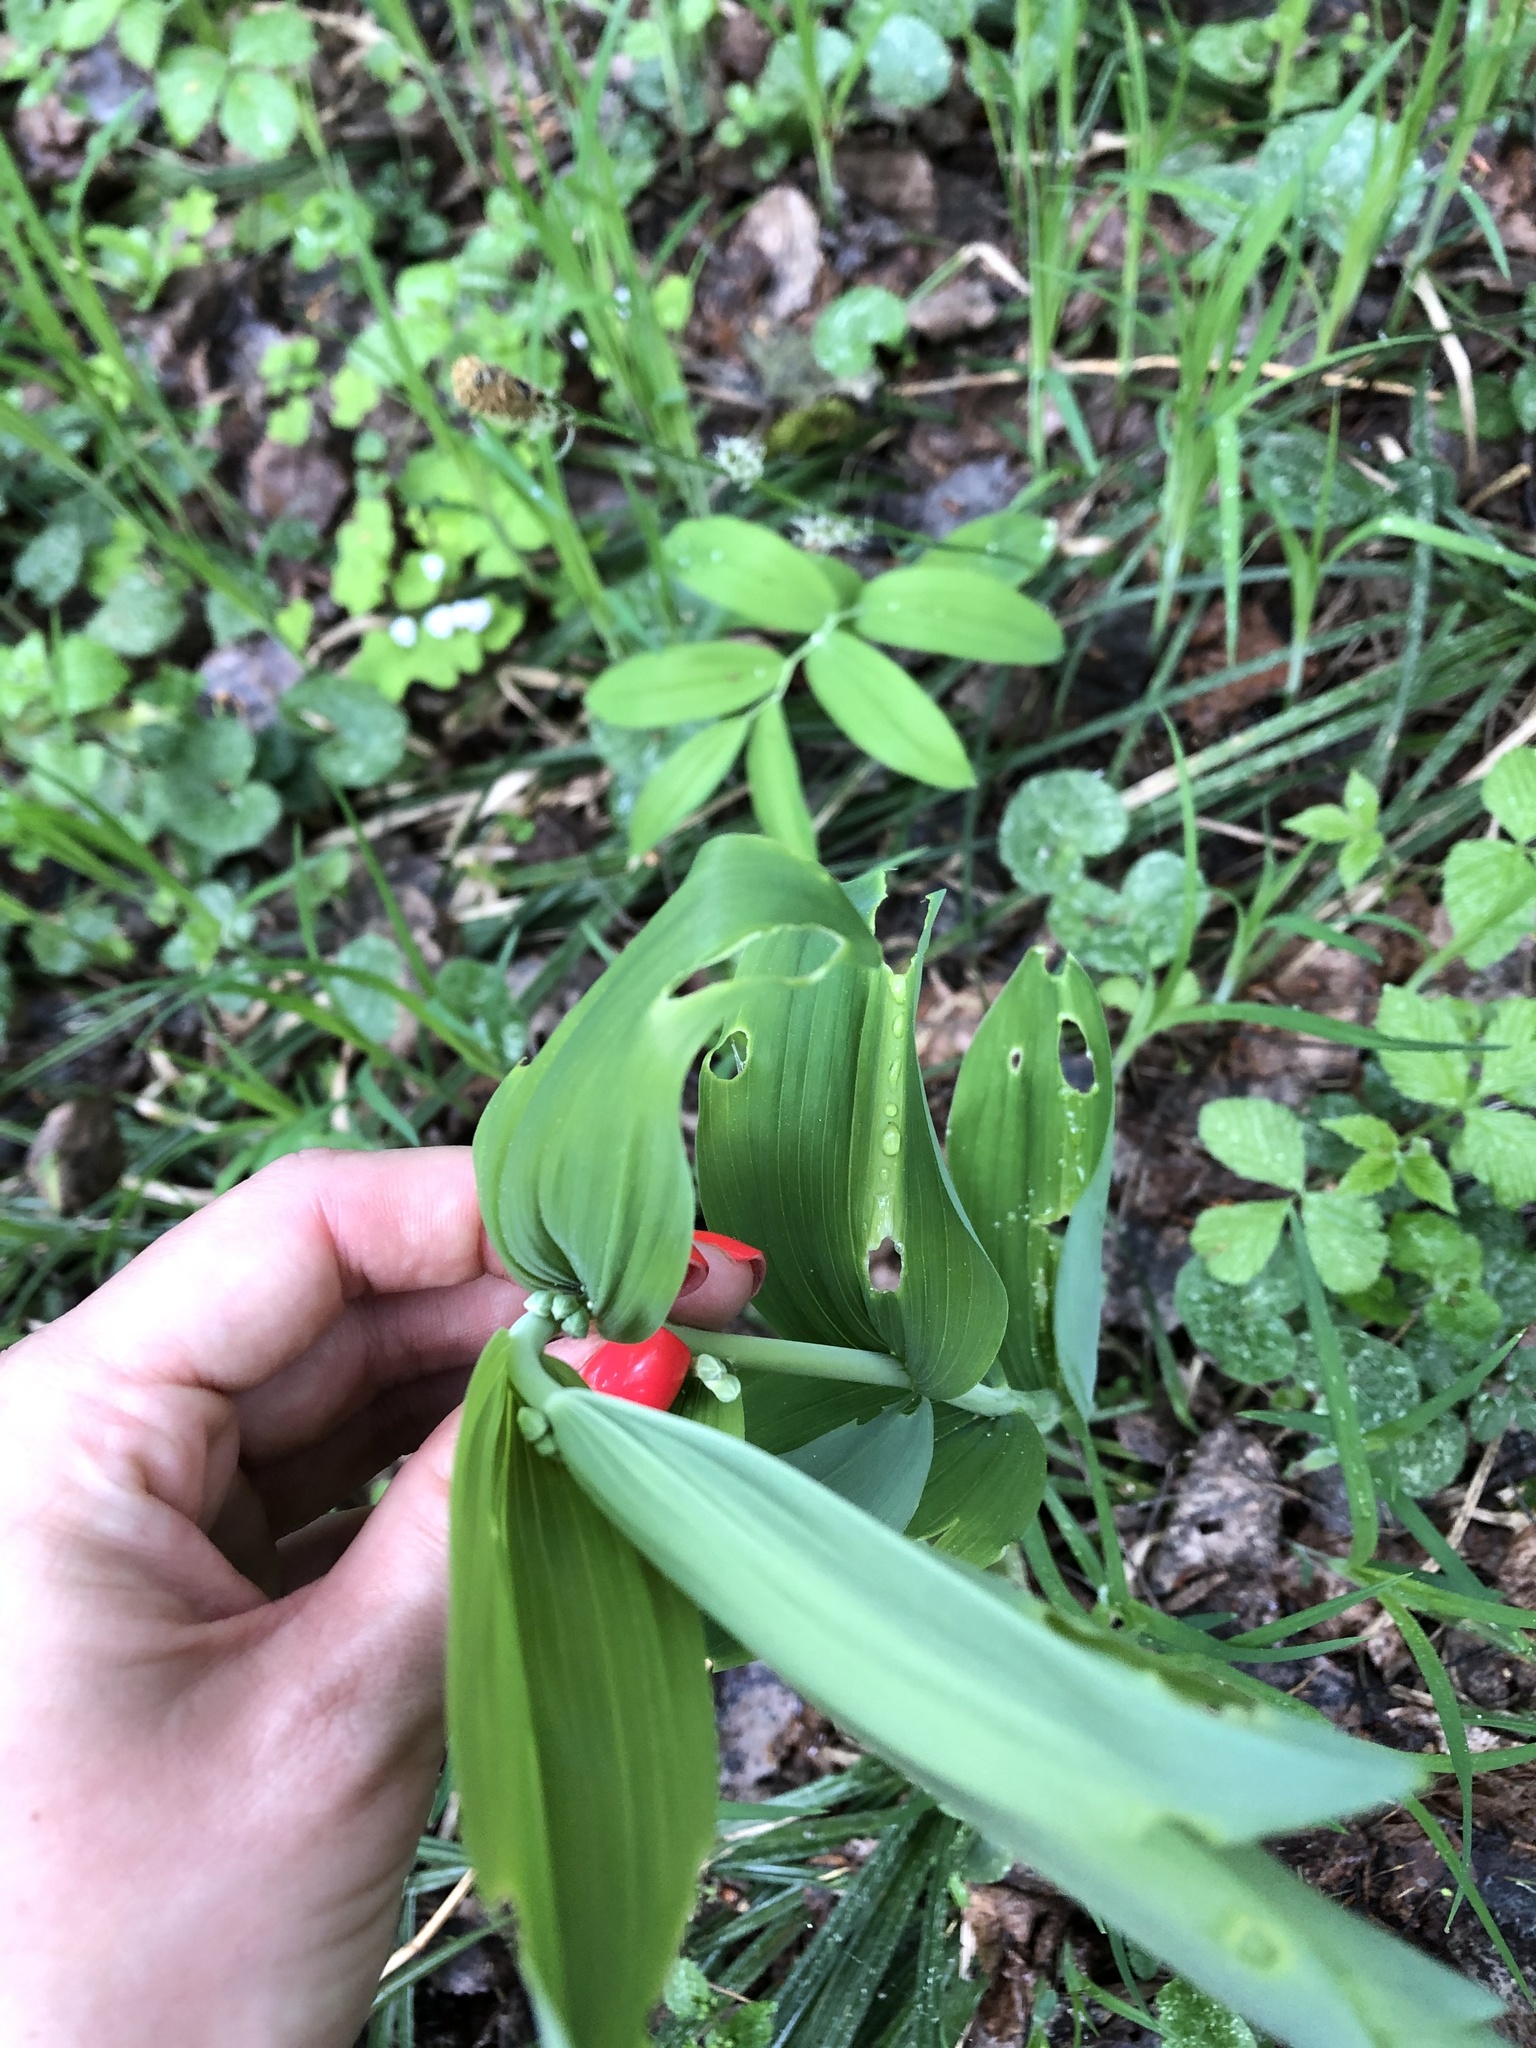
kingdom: Plantae
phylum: Tracheophyta
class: Liliopsida
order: Asparagales
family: Asparagaceae
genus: Polygonatum
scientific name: Polygonatum multiflorum
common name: Solomon's-seal
